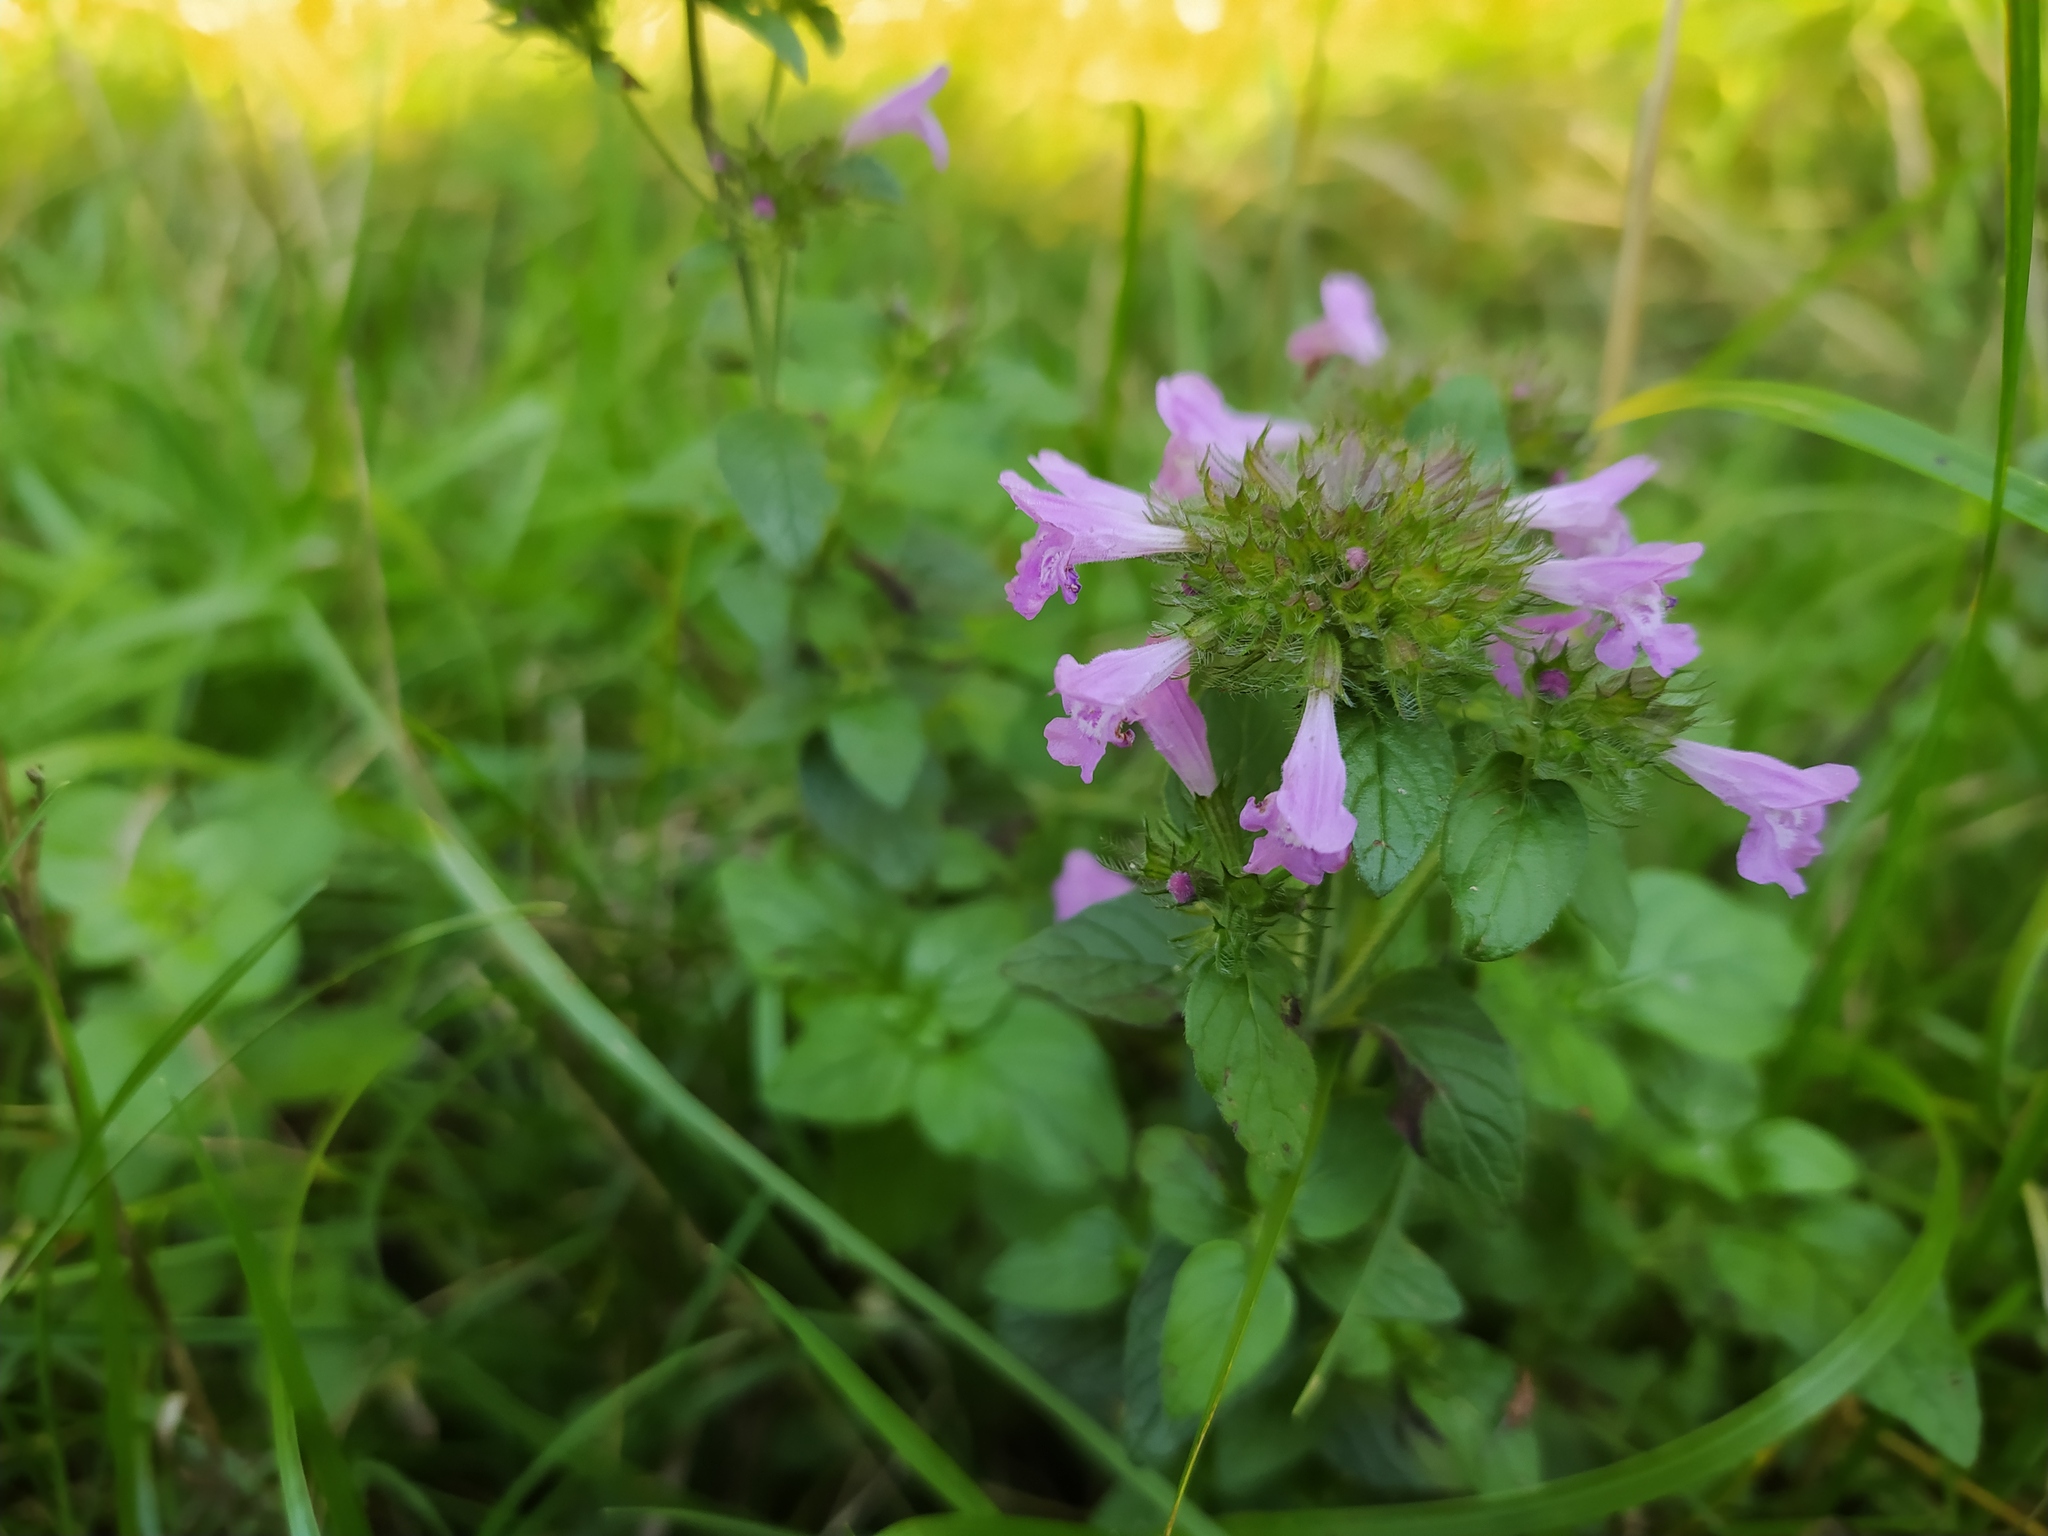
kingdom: Plantae
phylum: Tracheophyta
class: Magnoliopsida
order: Lamiales
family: Lamiaceae
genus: Clinopodium
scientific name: Clinopodium vulgare
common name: Wild basil
